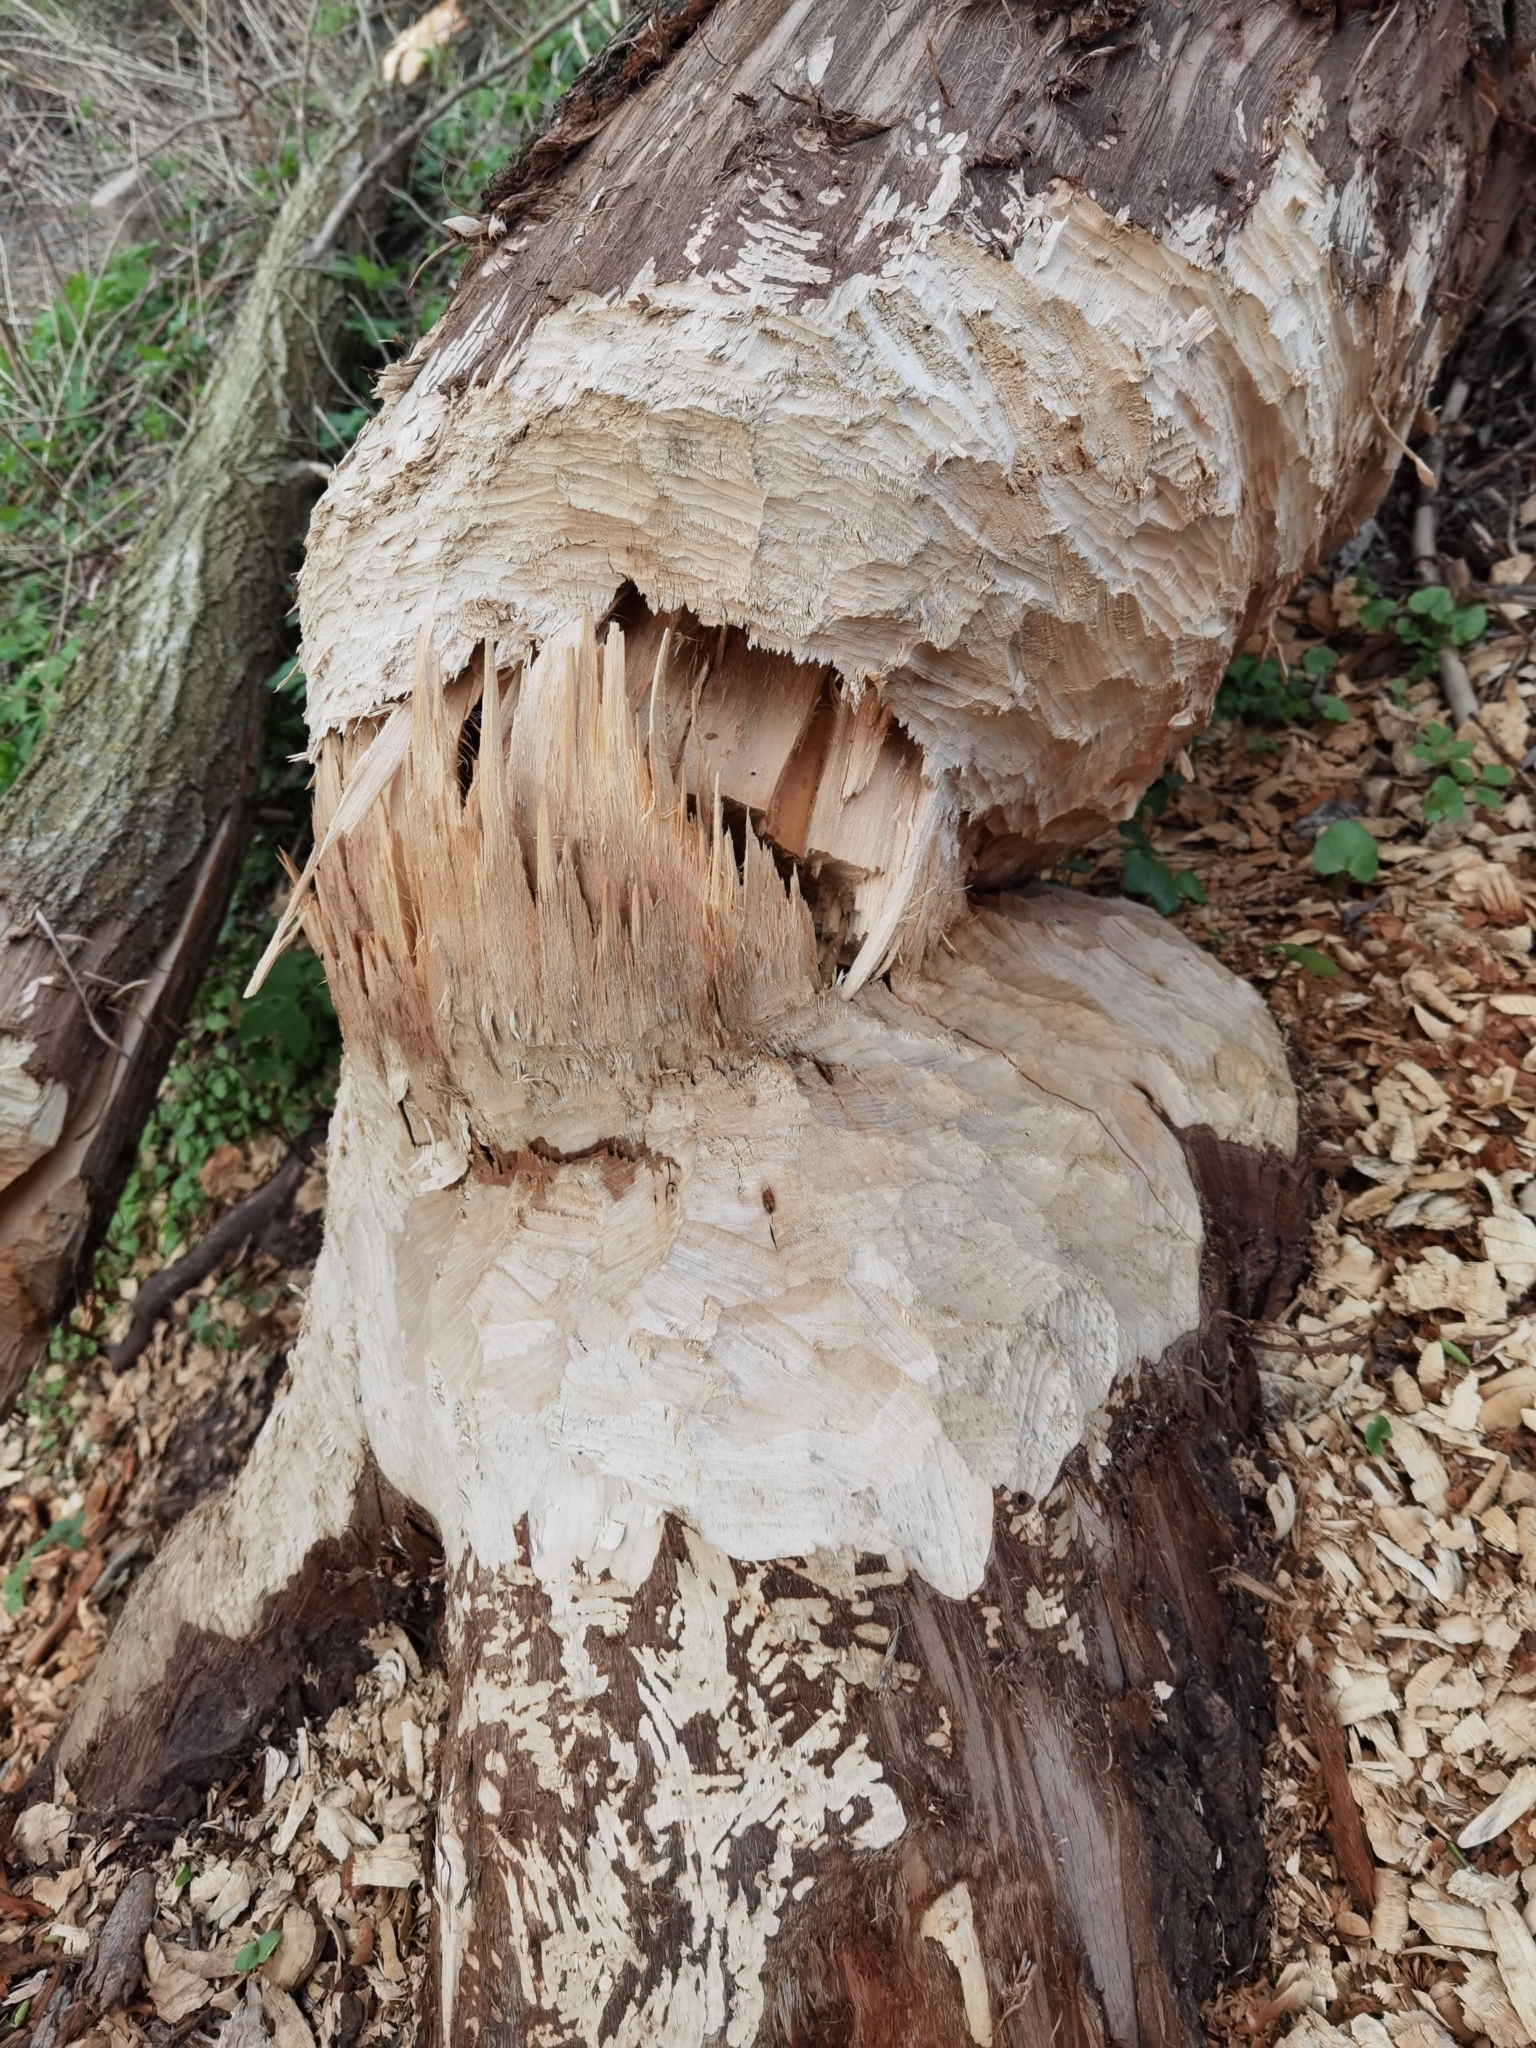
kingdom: Animalia
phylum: Chordata
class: Mammalia
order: Rodentia
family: Castoridae
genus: Castor
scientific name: Castor fiber
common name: Eurasian beaver
